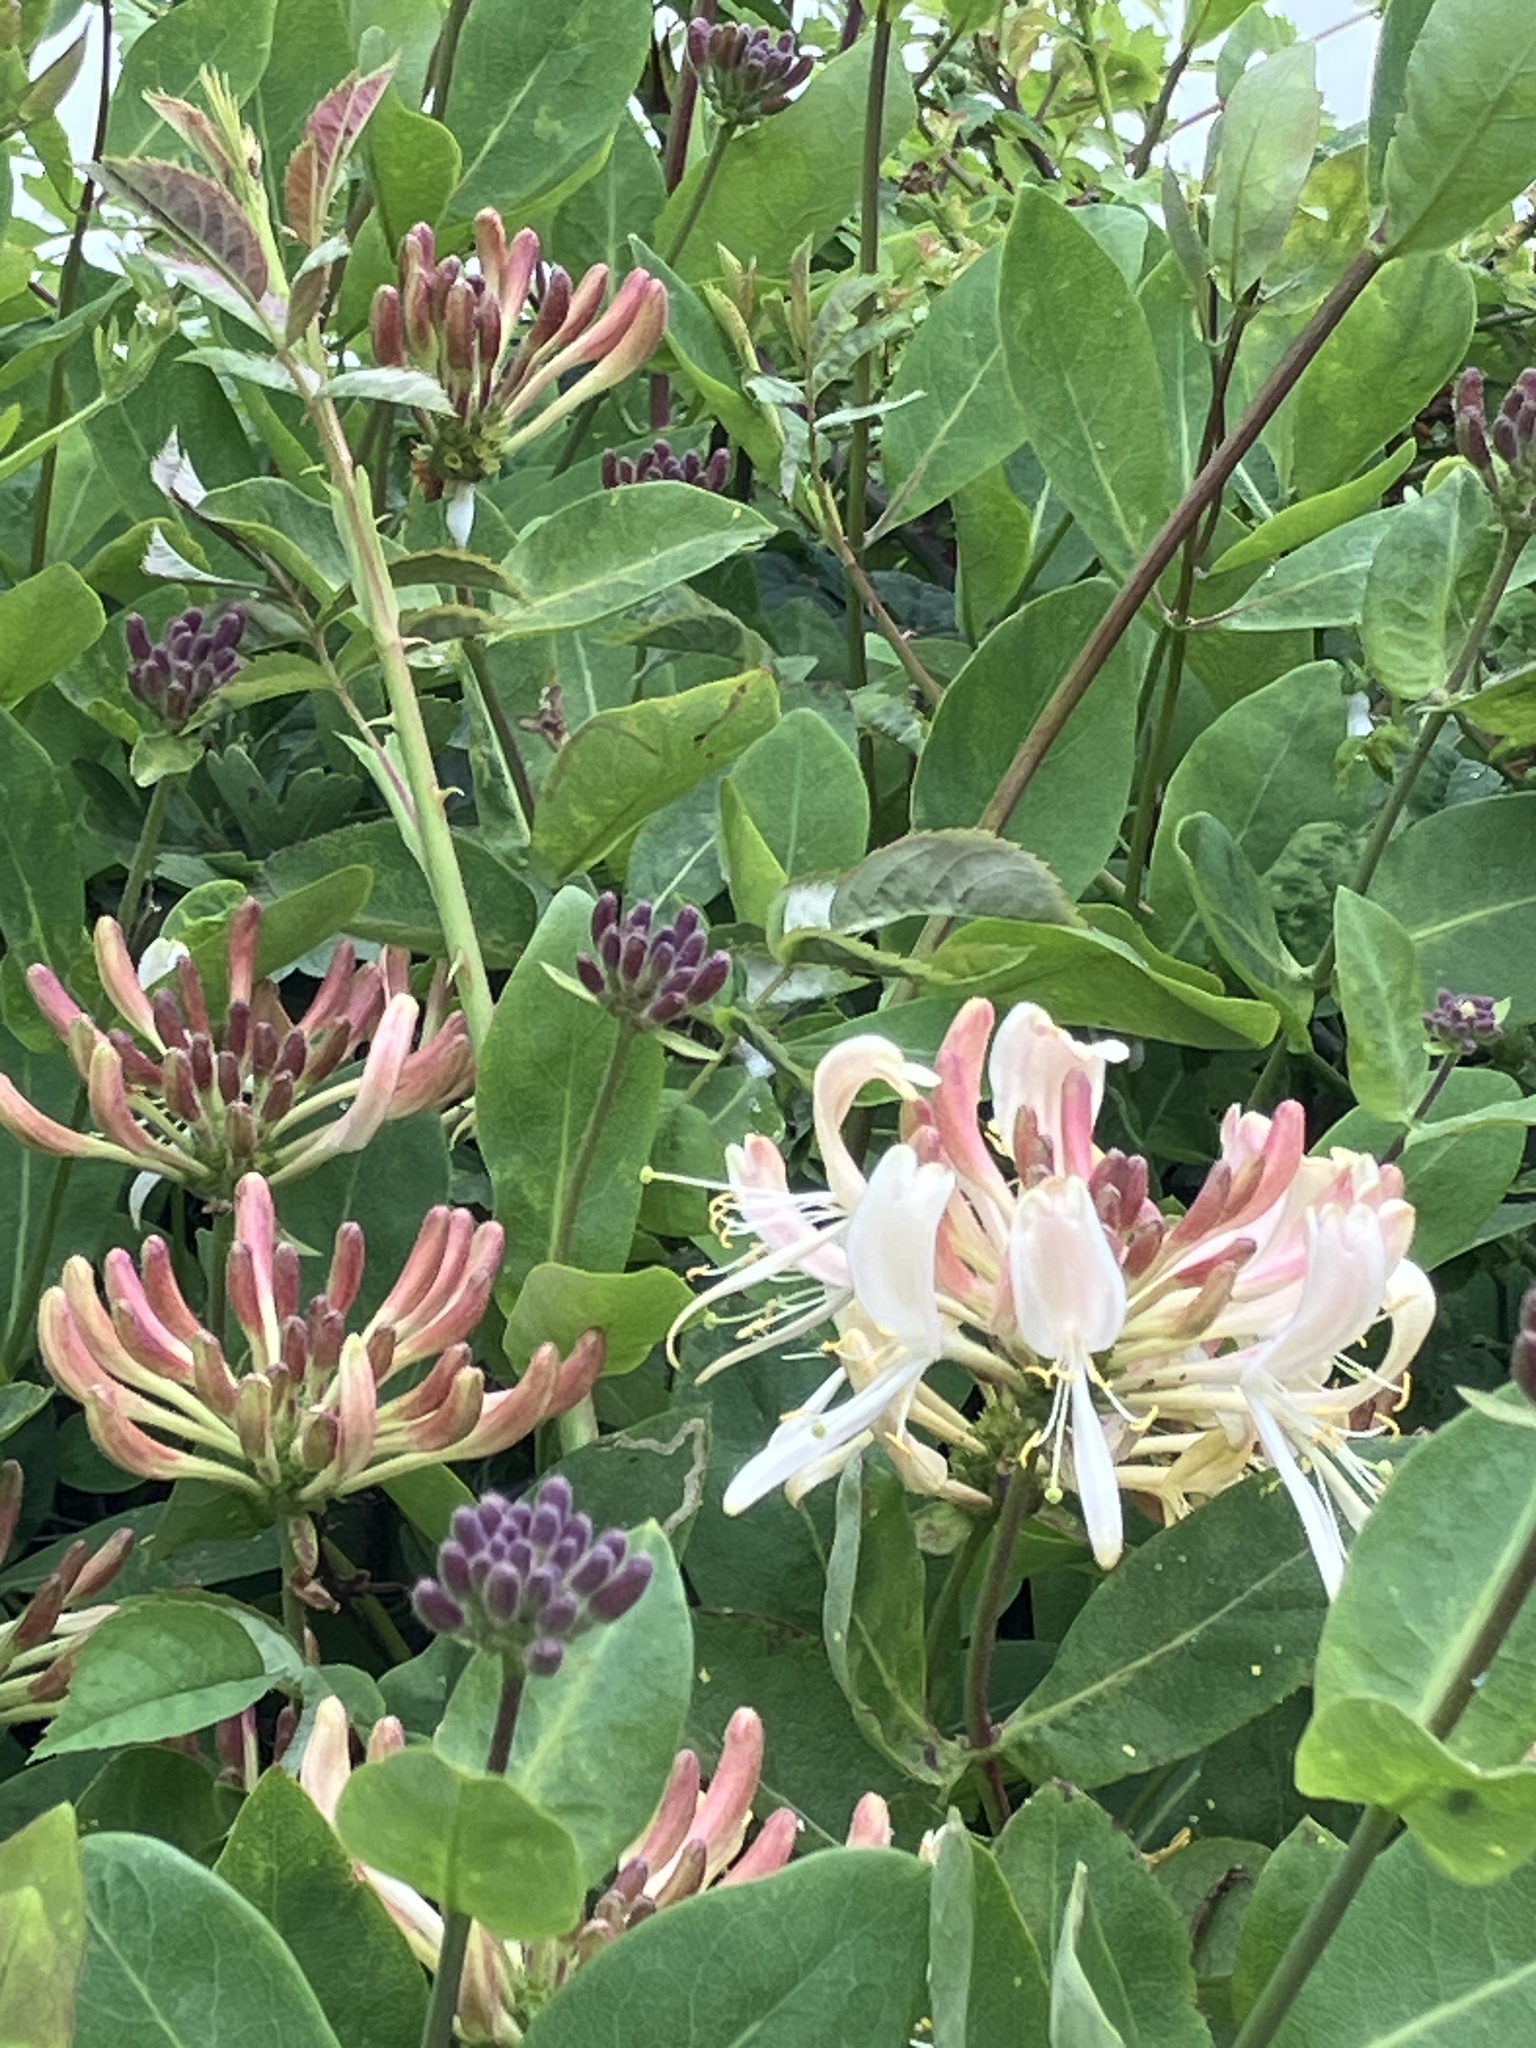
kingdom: Plantae
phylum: Tracheophyta
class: Magnoliopsida
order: Dipsacales
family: Caprifoliaceae
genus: Lonicera
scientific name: Lonicera periclymenum
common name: European honeysuckle
